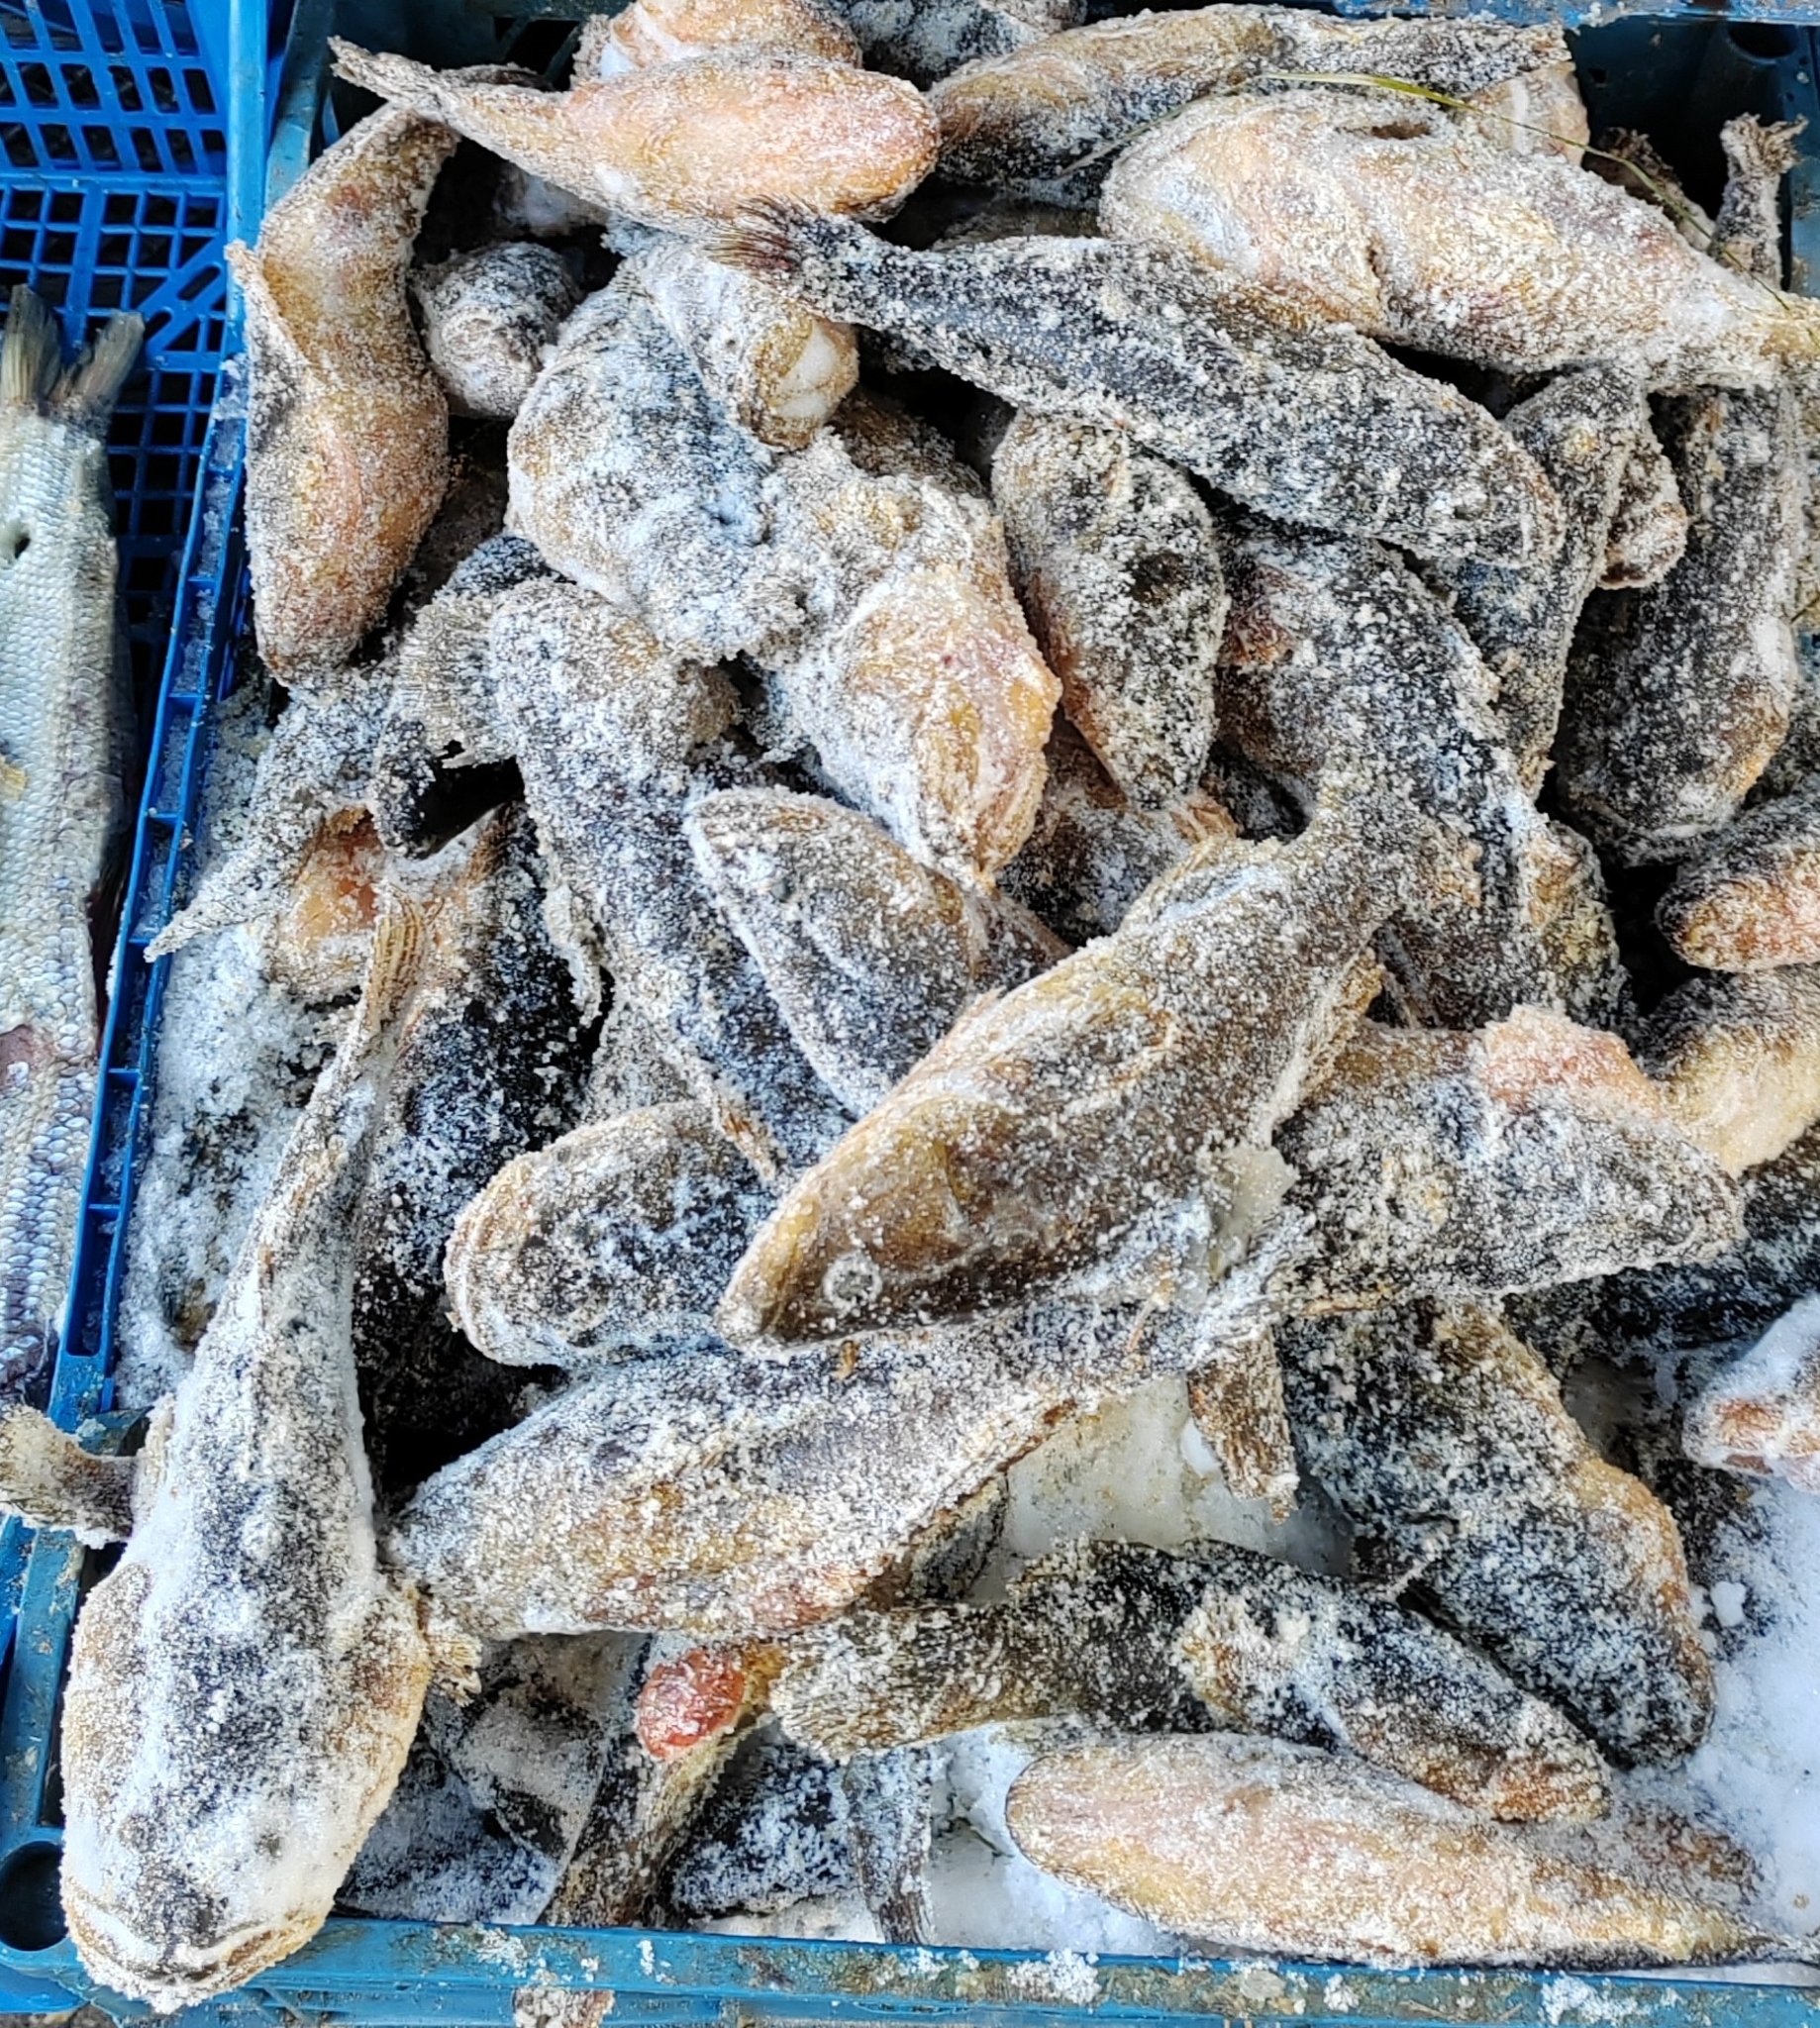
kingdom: Animalia
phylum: Chordata
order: Perciformes
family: Odontobutidae
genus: Perccottus
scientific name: Perccottus glenii
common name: Amur sleeper
